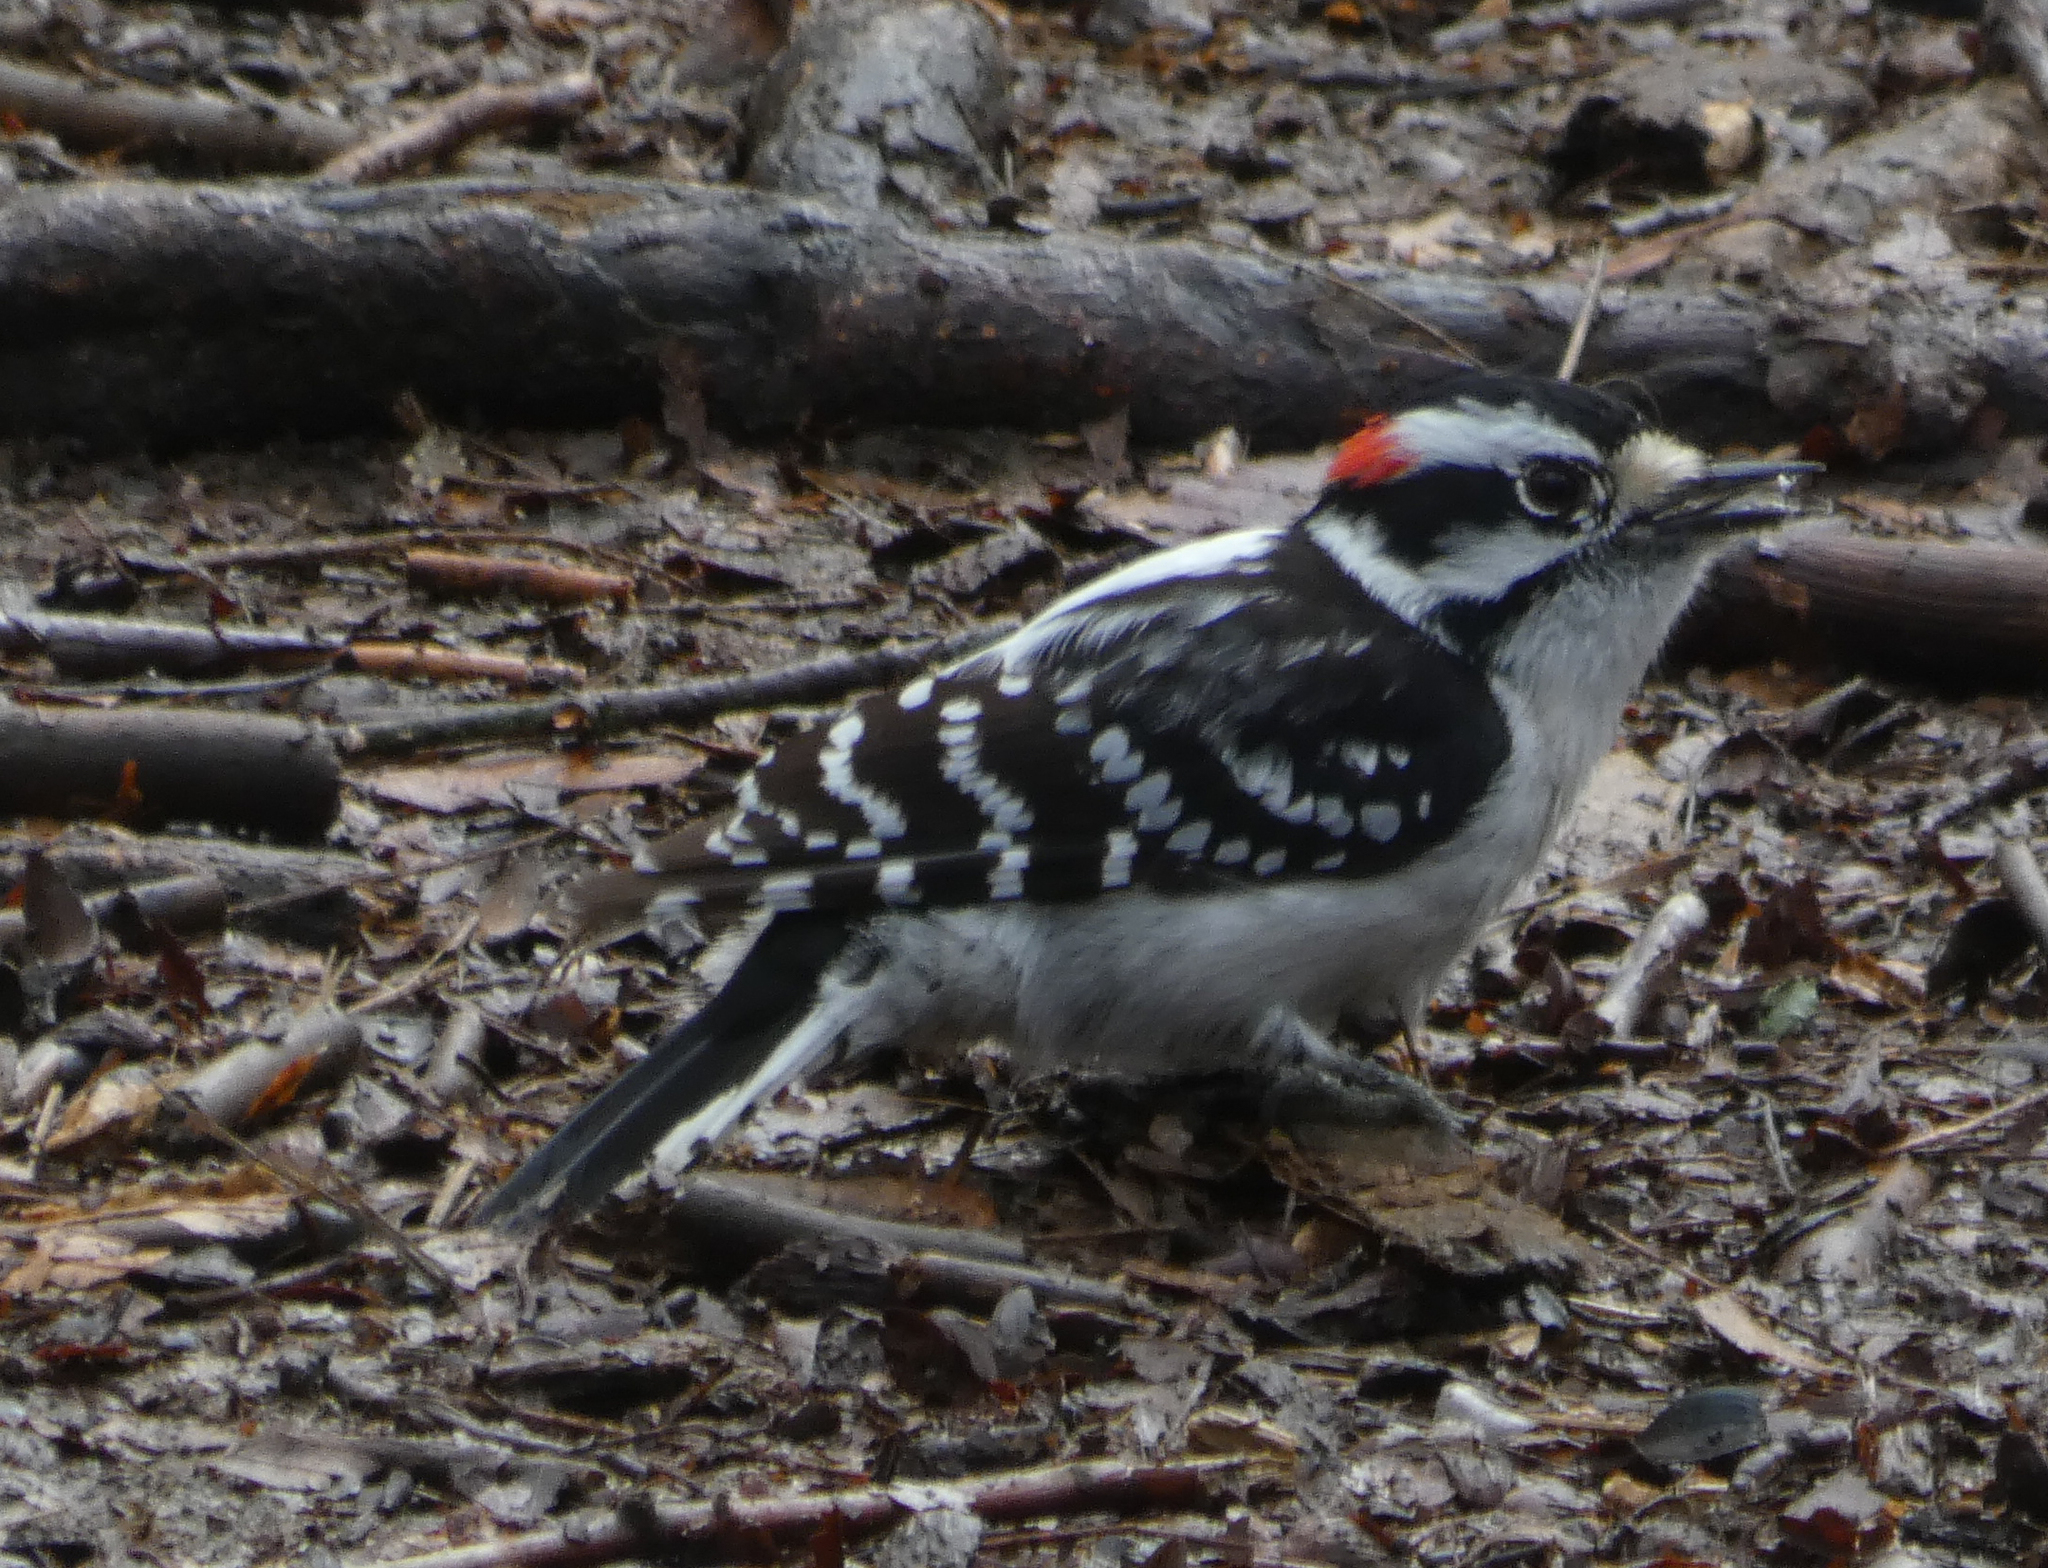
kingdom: Animalia
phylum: Chordata
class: Aves
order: Piciformes
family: Picidae
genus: Dryobates
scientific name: Dryobates pubescens
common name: Downy woodpecker
